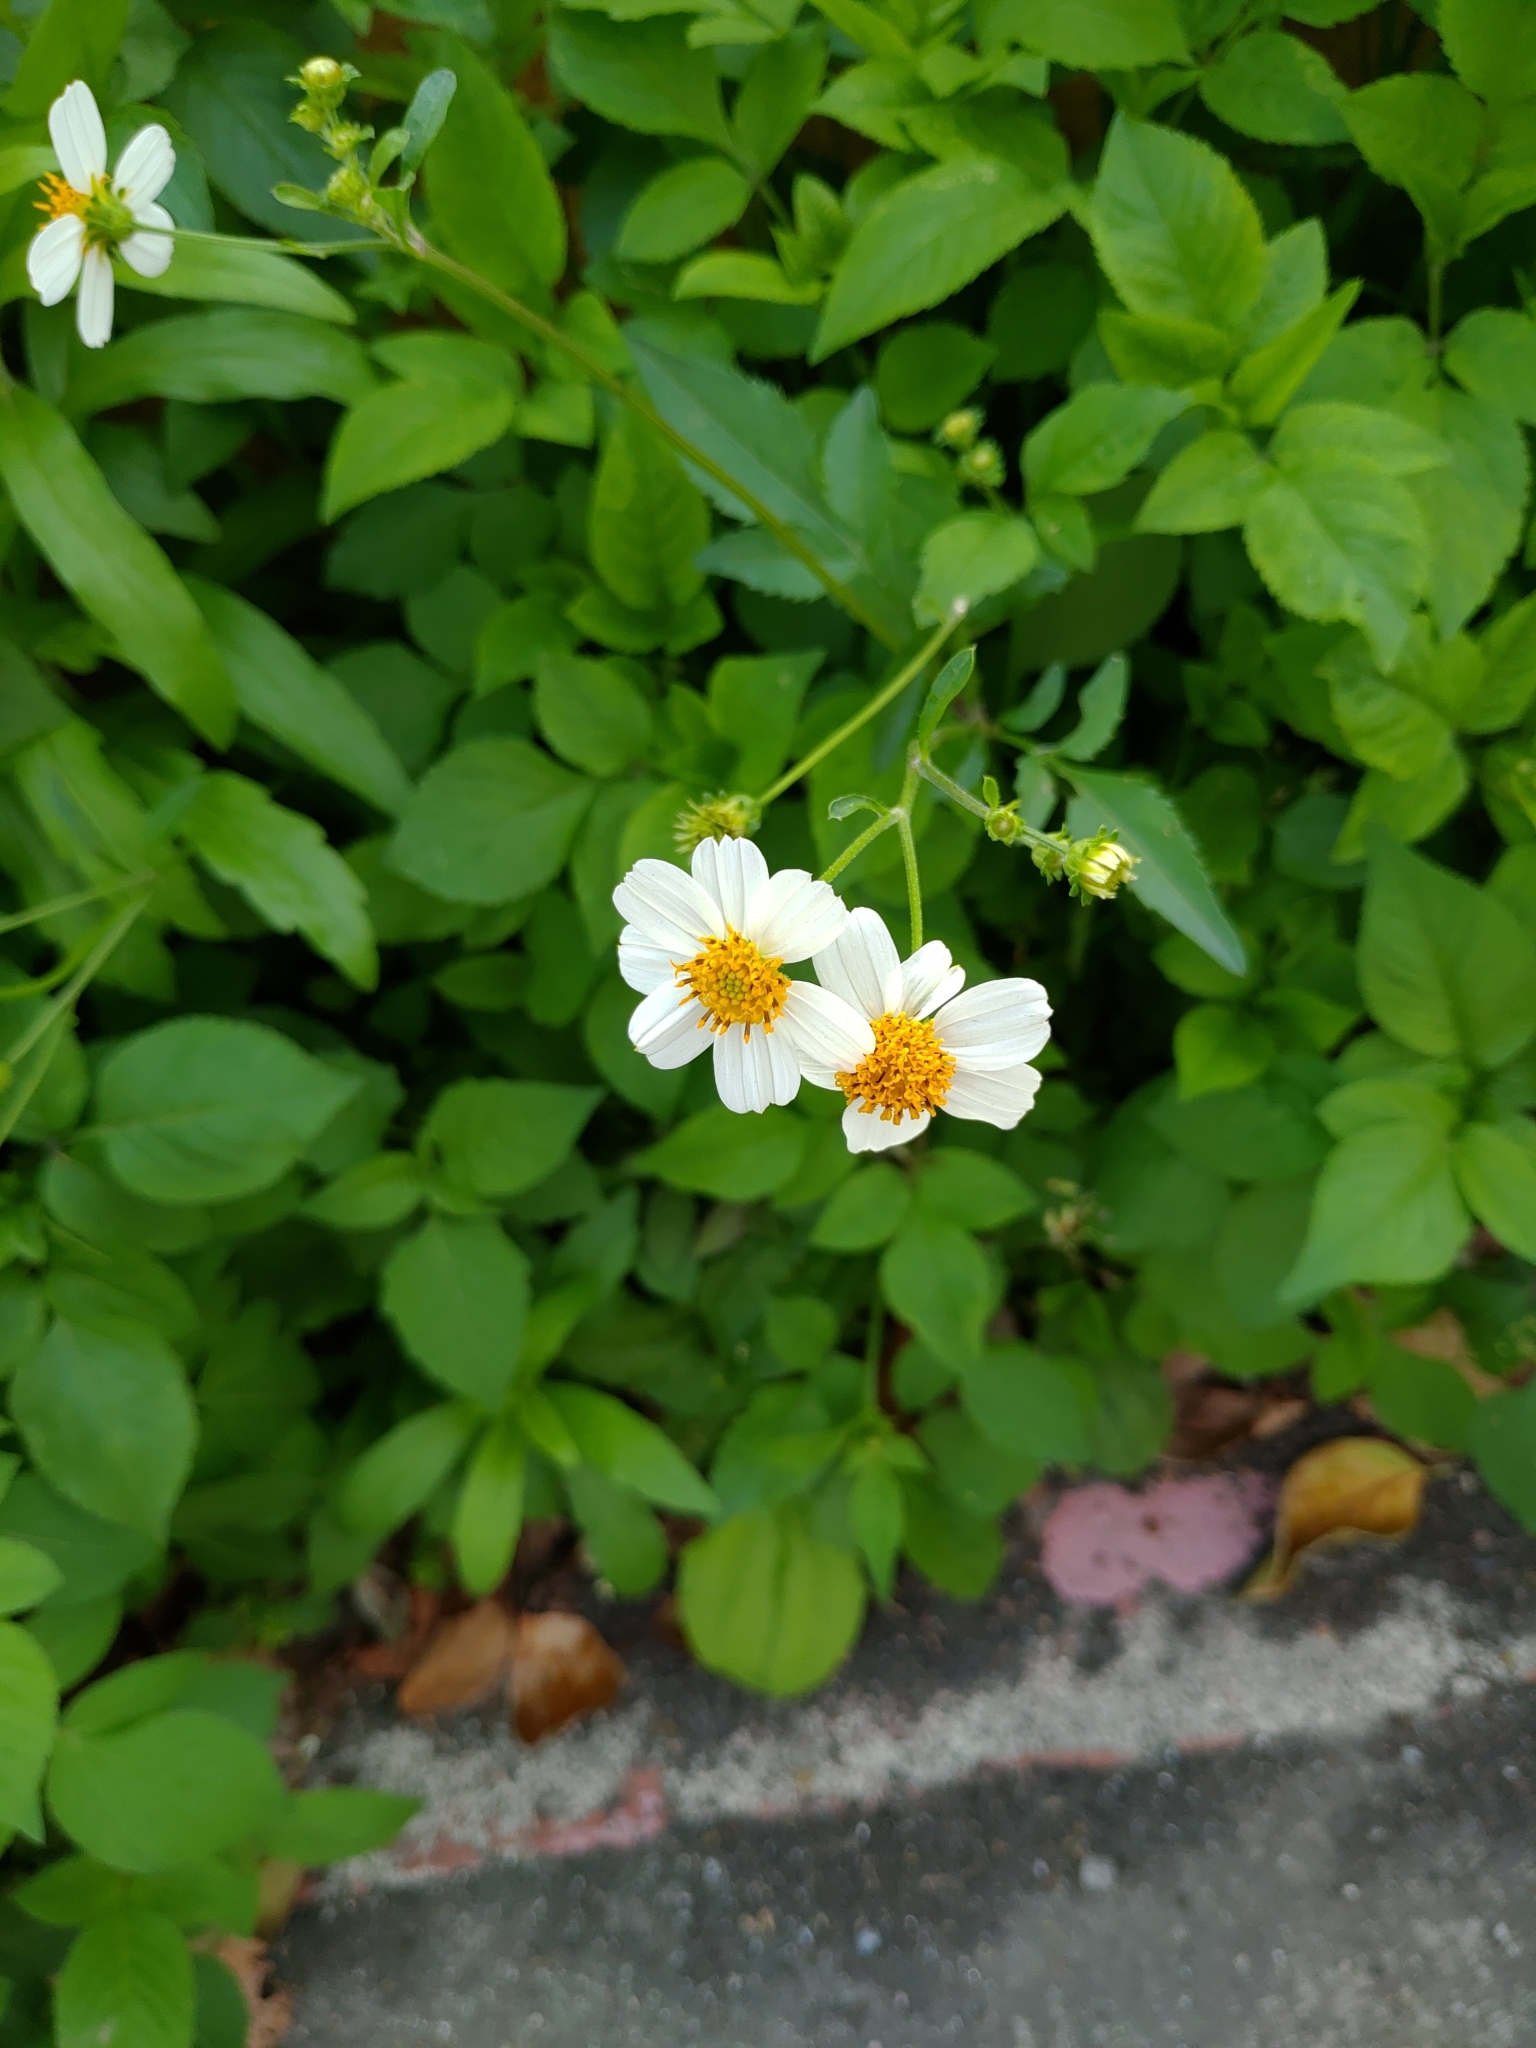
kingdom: Plantae
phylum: Tracheophyta
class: Magnoliopsida
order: Asterales
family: Asteraceae
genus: Bidens
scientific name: Bidens alba
